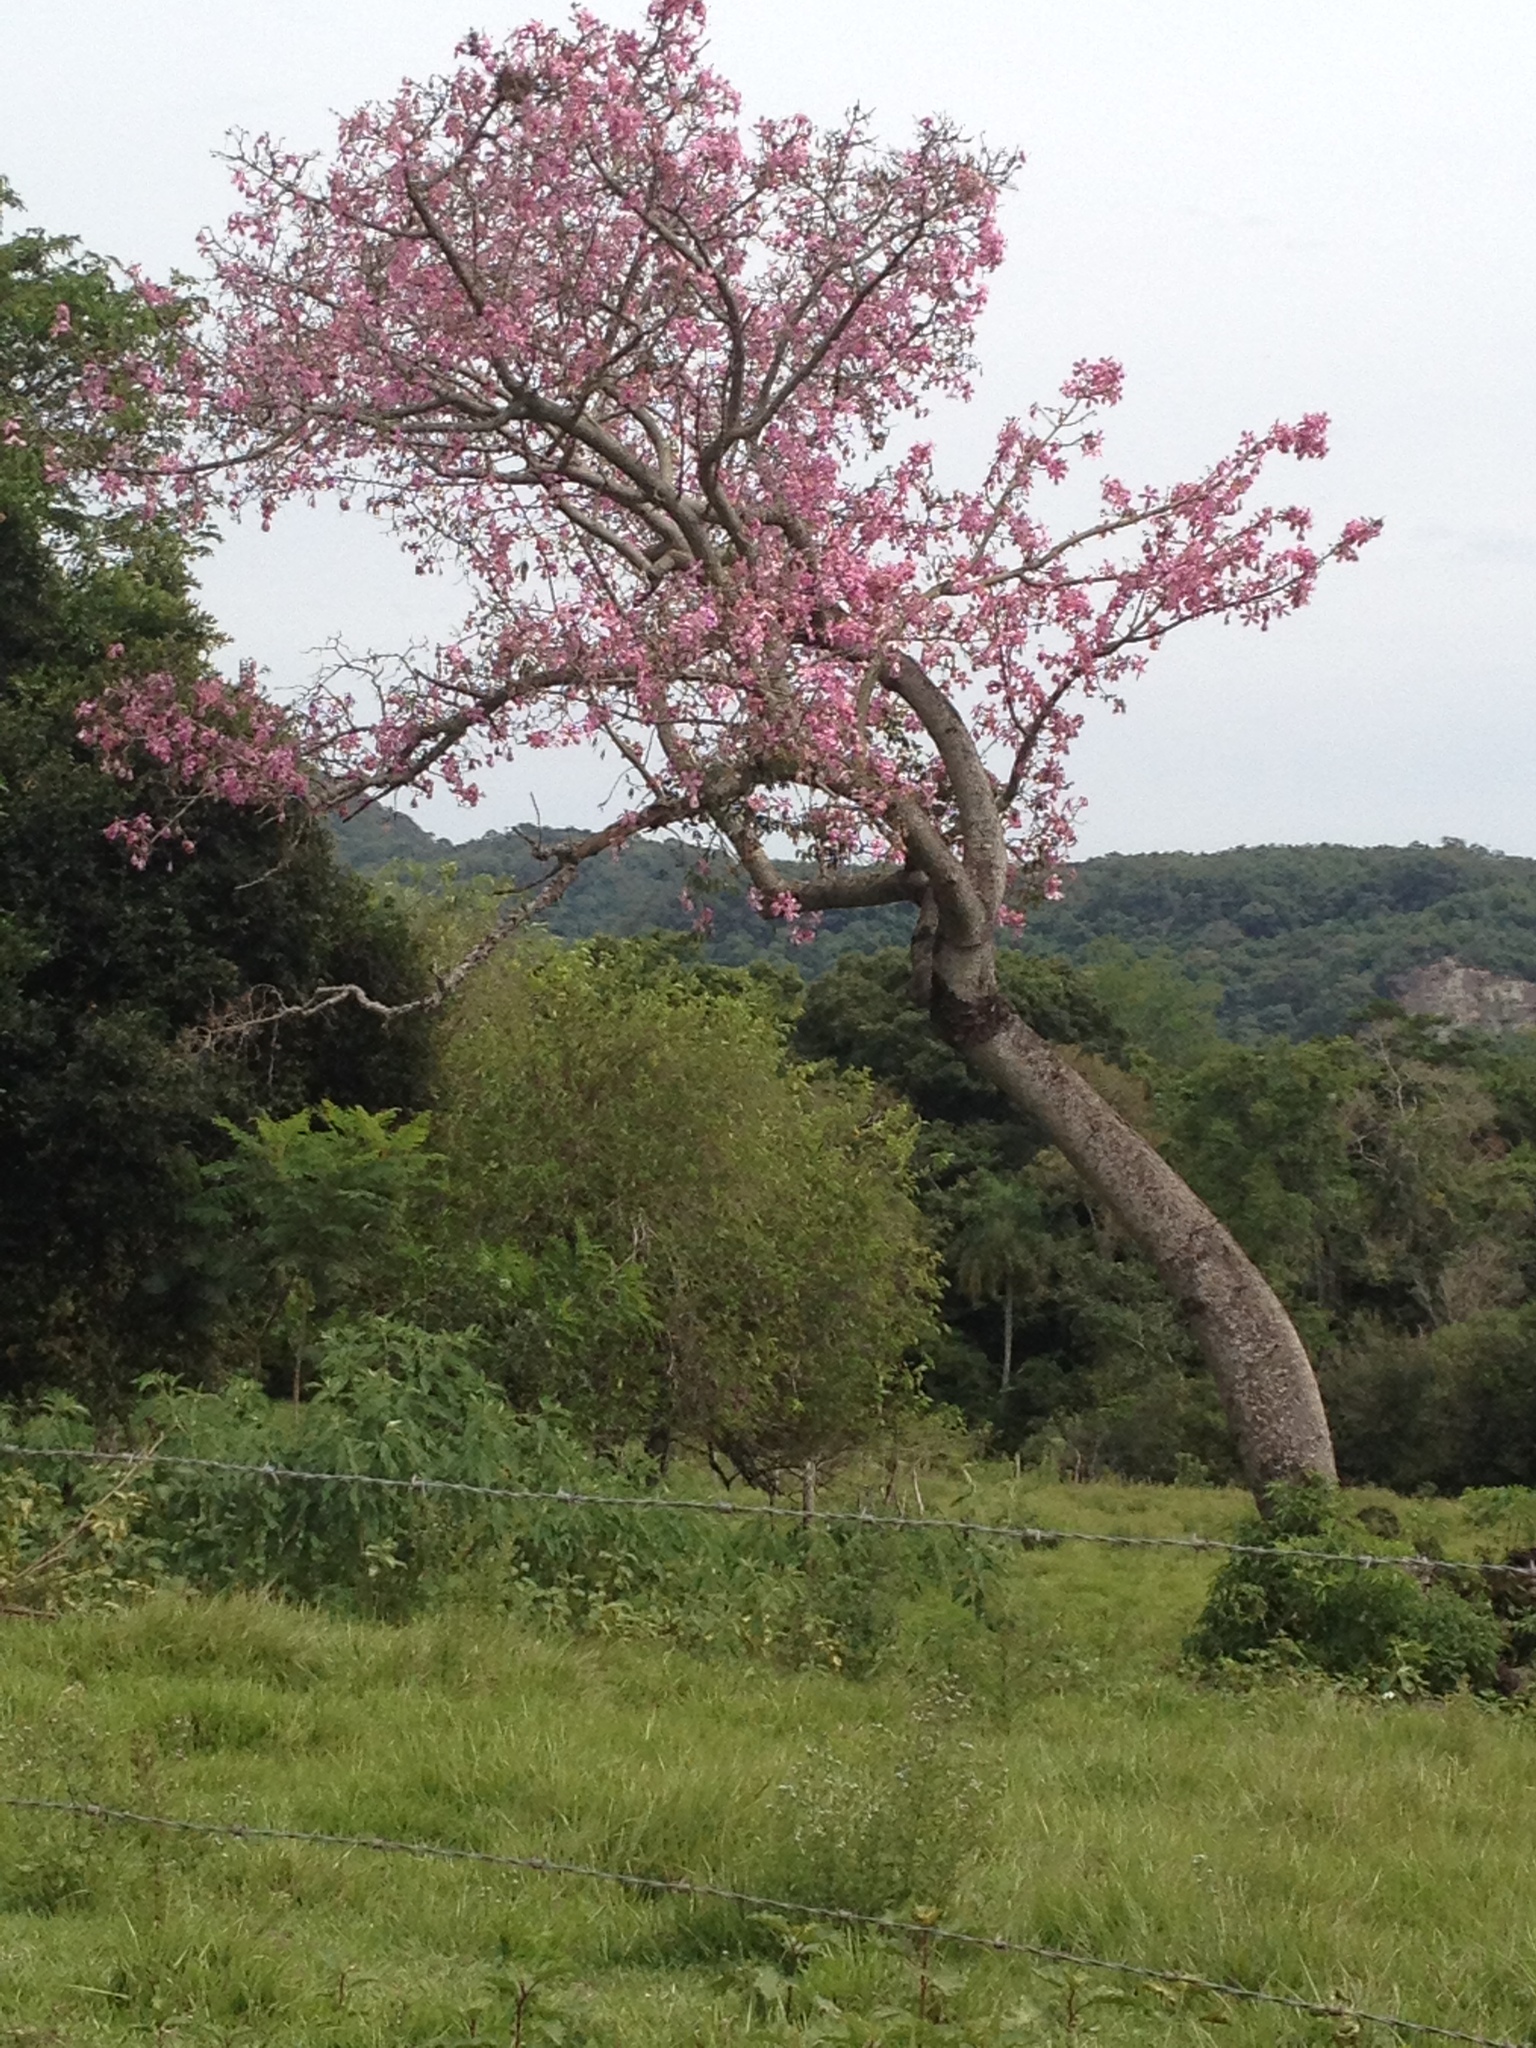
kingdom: Plantae
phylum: Tracheophyta
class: Magnoliopsida
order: Malvales
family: Malvaceae
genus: Ceiba
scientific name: Ceiba speciosa
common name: Silk-floss tree
